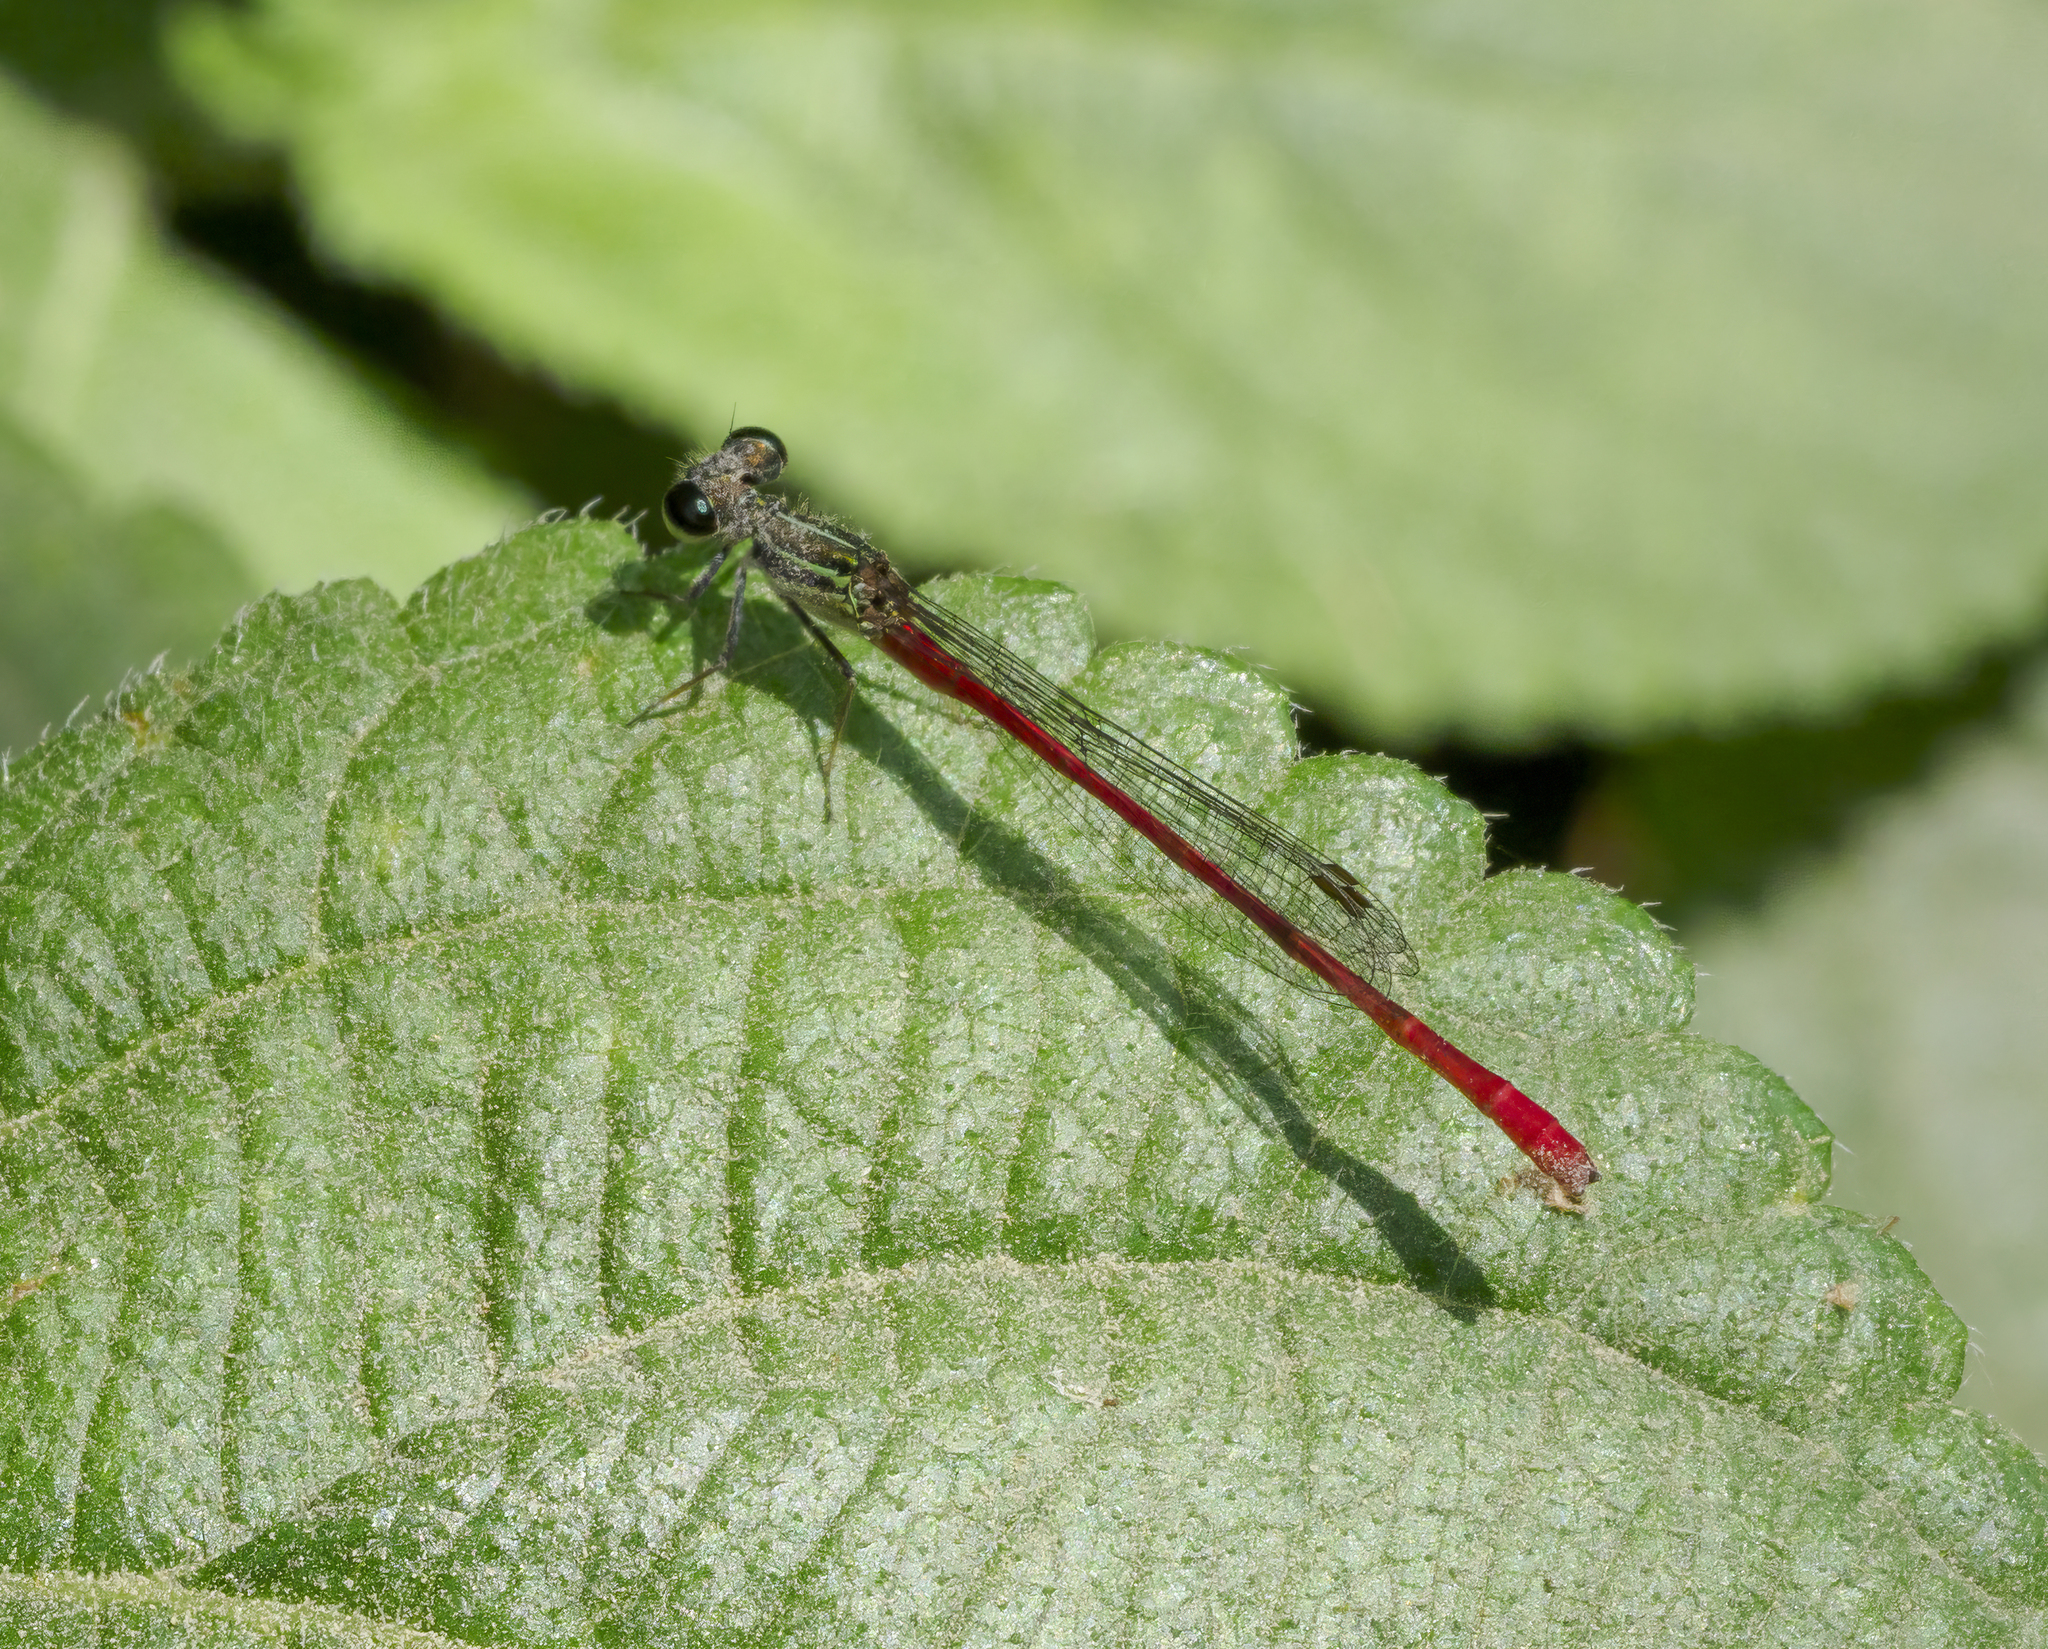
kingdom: Animalia
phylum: Arthropoda
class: Insecta
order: Odonata
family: Coenagrionidae
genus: Telebasis
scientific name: Telebasis willinki
